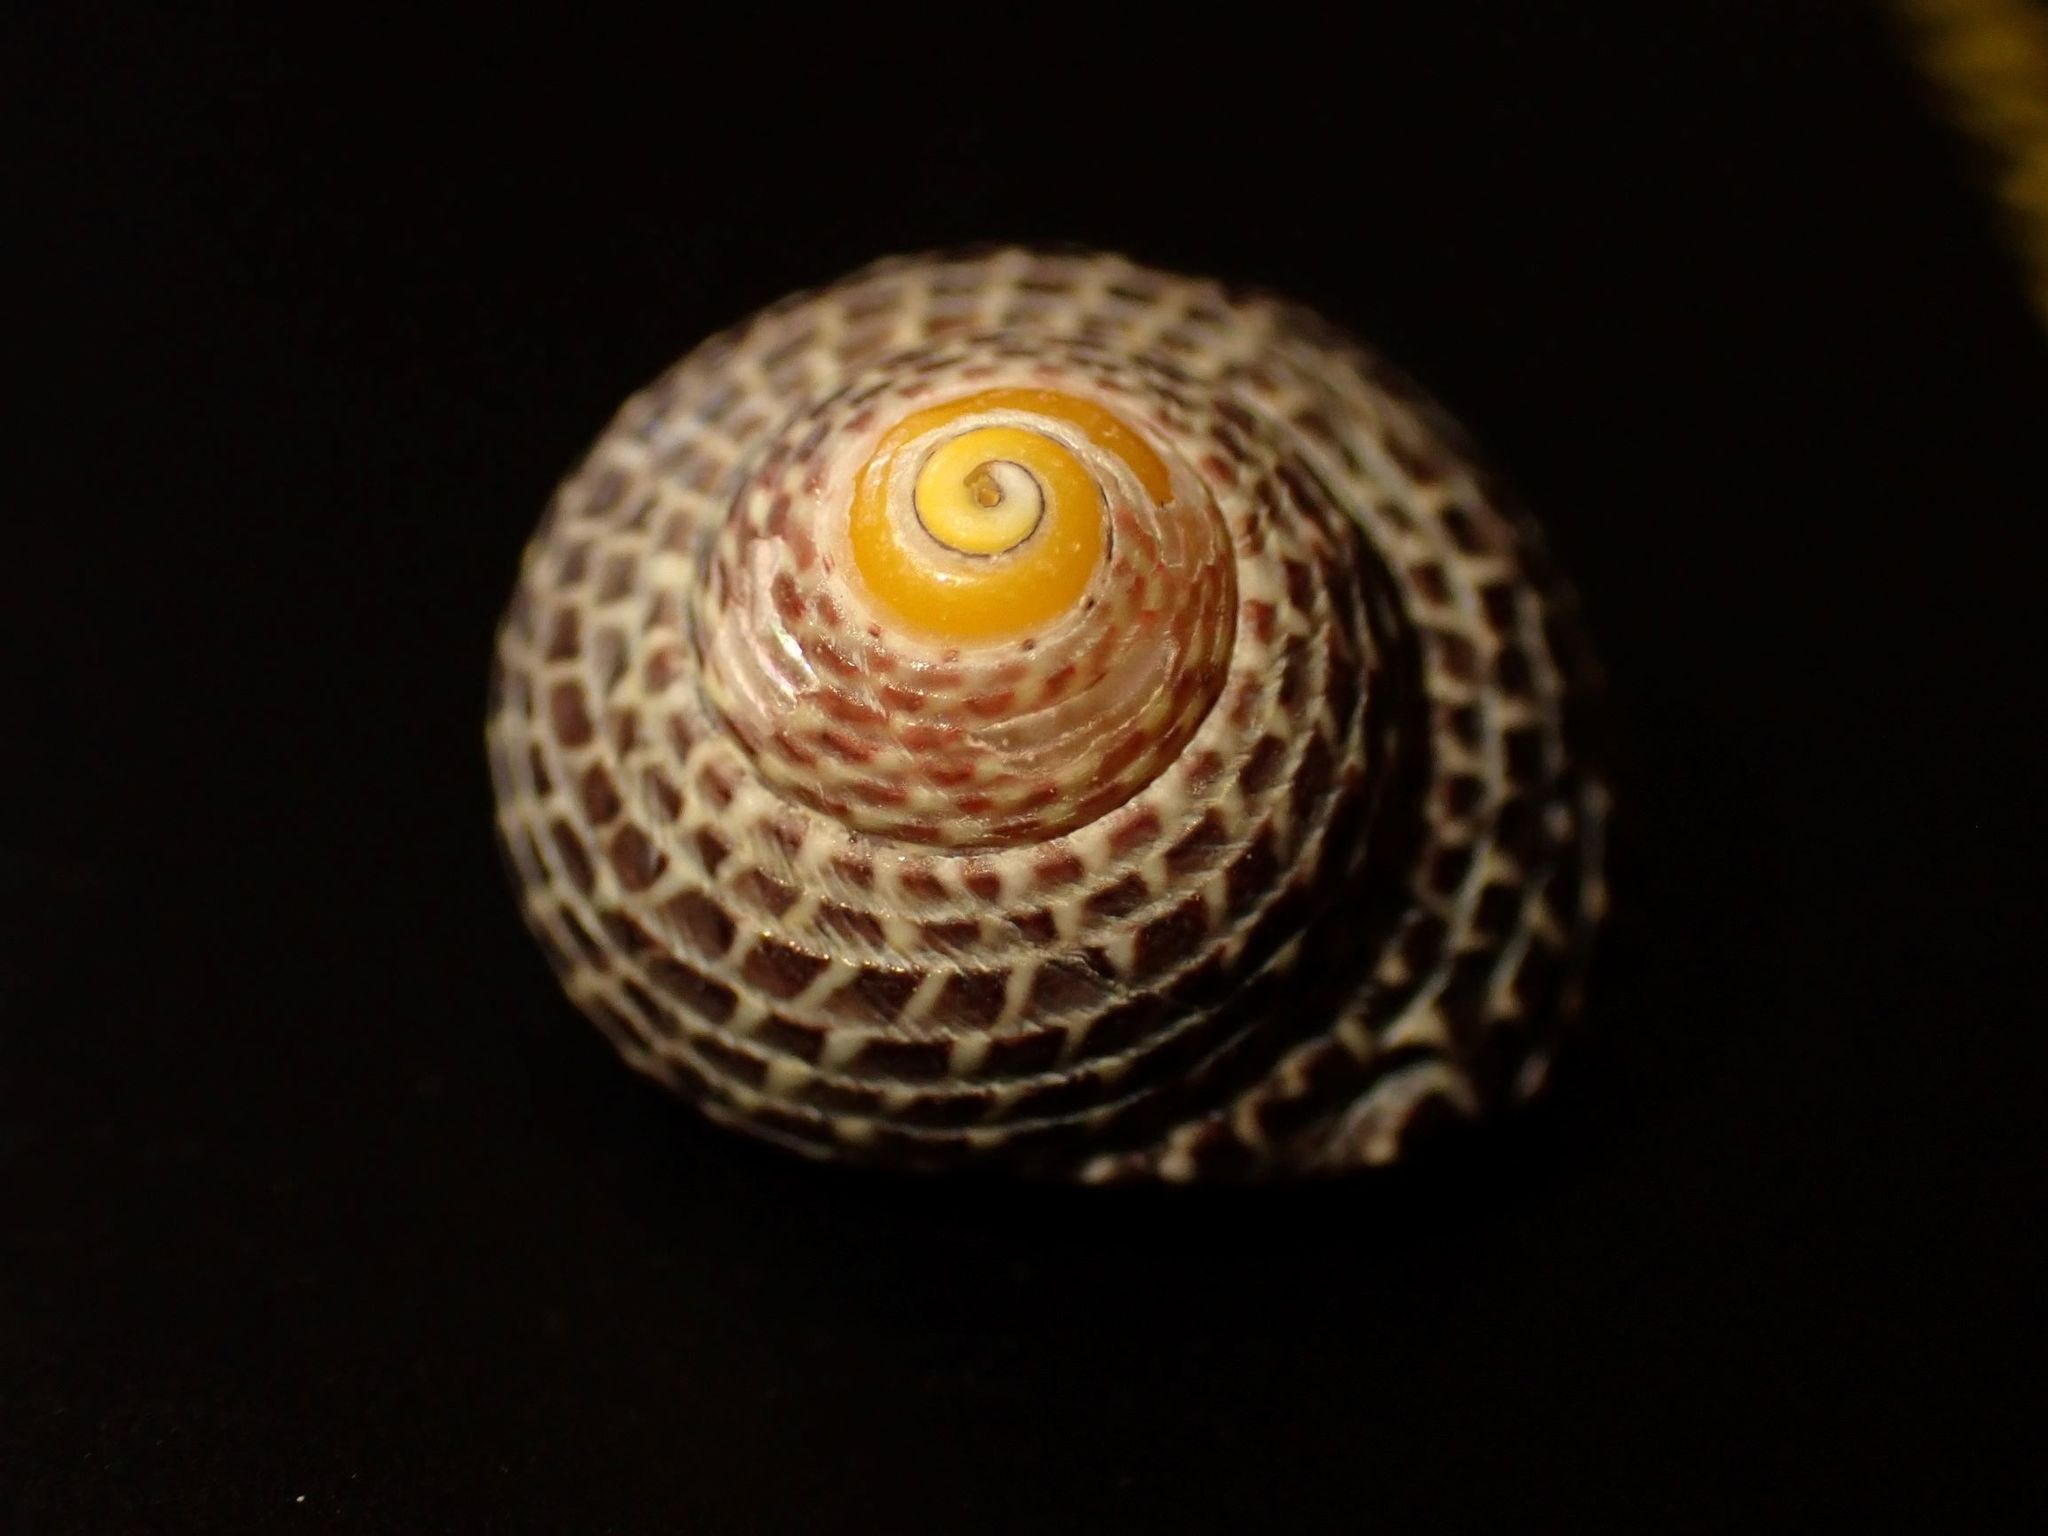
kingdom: Animalia
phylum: Mollusca
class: Gastropoda
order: Trochida
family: Trochidae
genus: Chlorodiloma
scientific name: Chlorodiloma adelaidae
